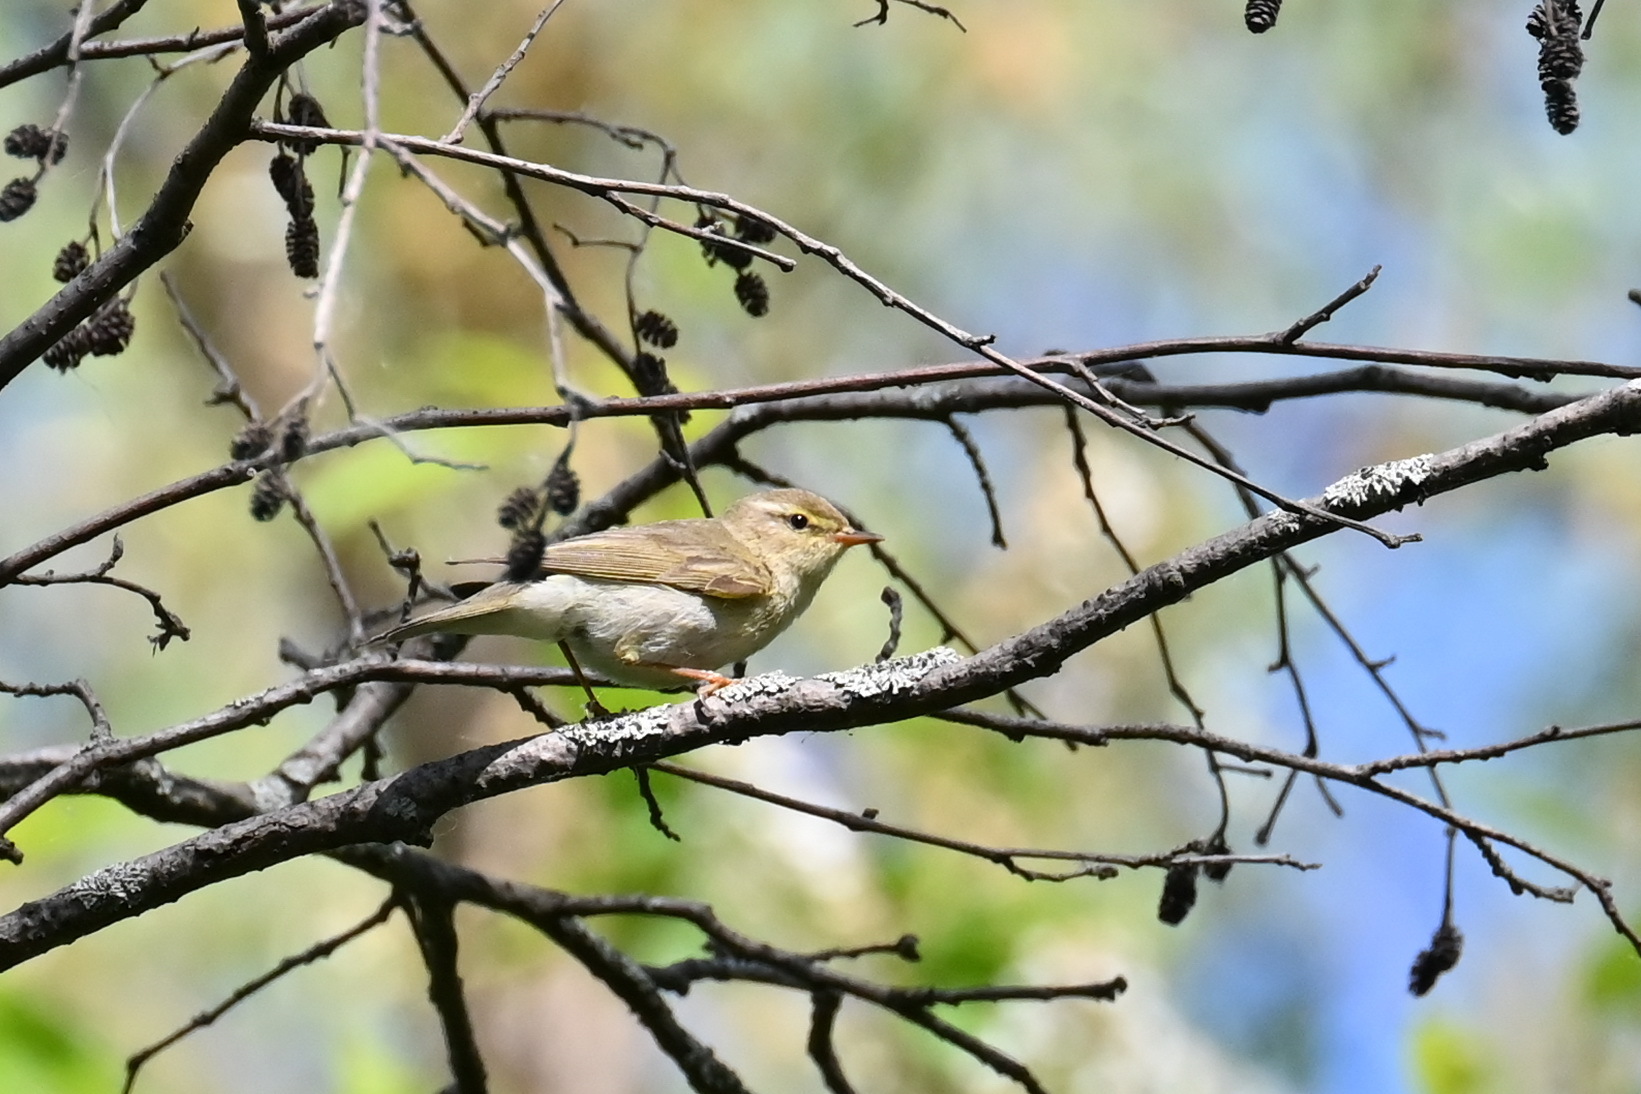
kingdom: Animalia
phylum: Chordata
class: Aves
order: Passeriformes
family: Phylloscopidae
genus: Phylloscopus
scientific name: Phylloscopus trochilus
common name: Willow warbler
